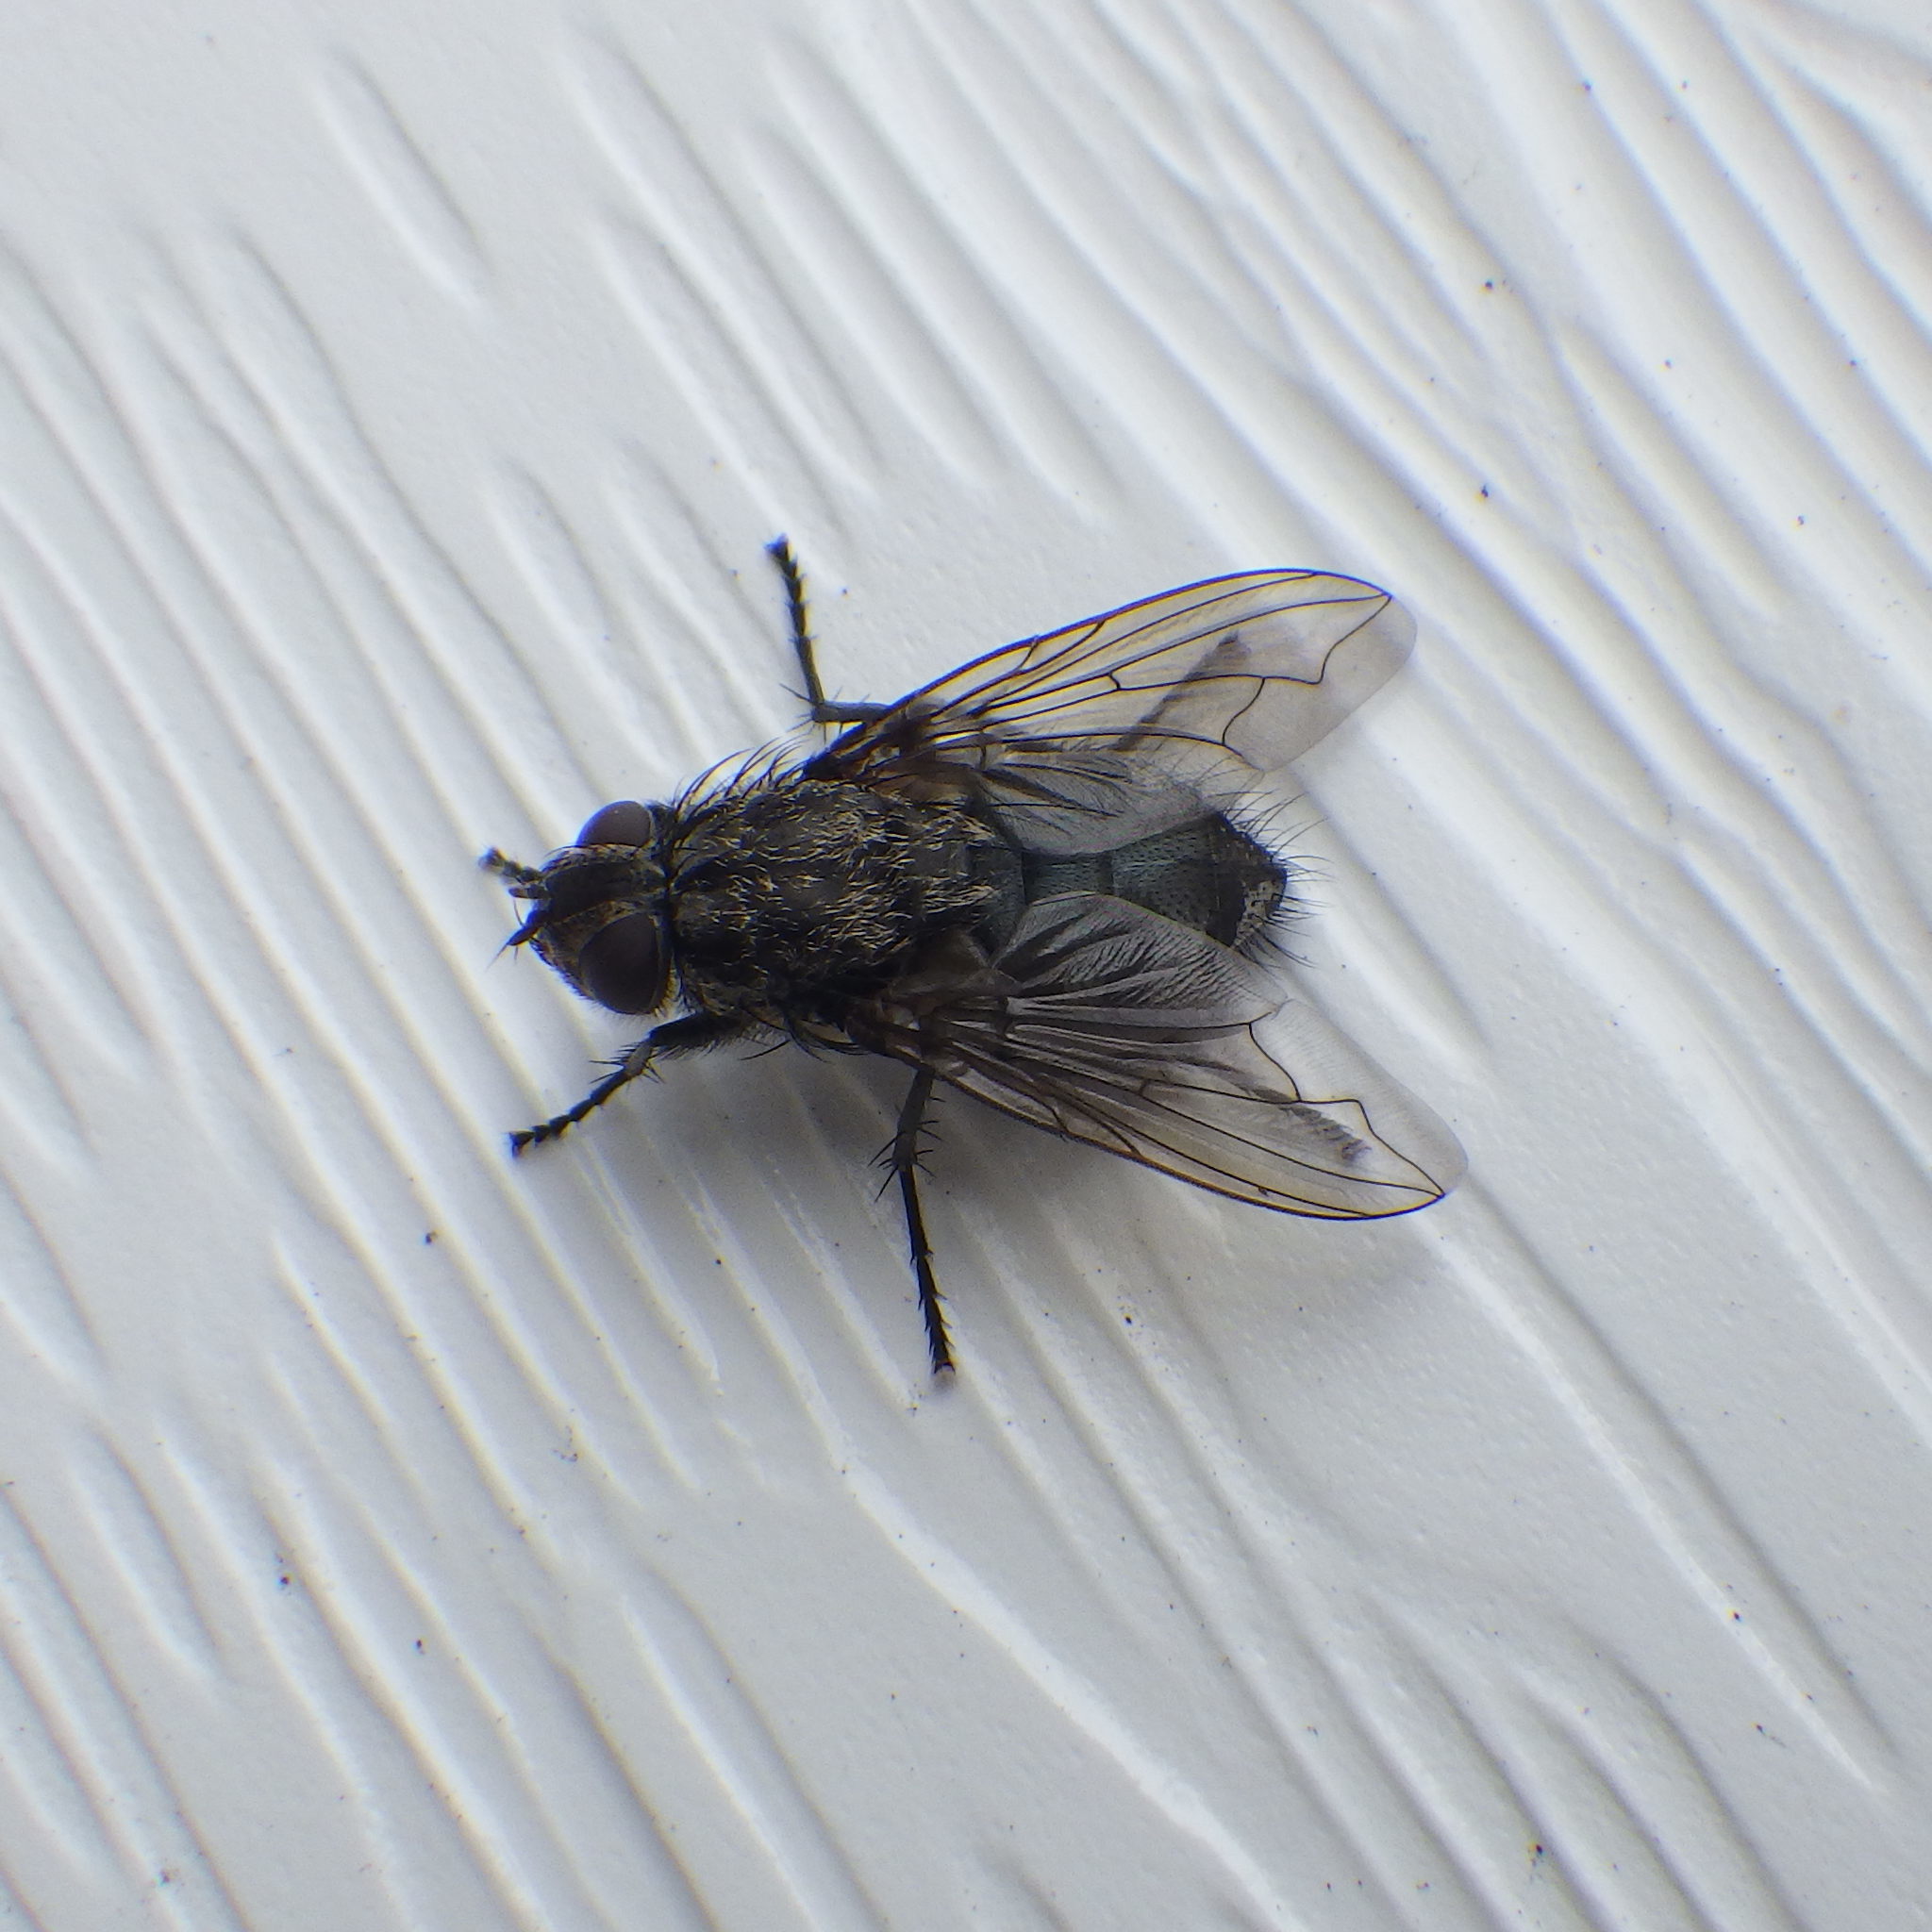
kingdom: Animalia
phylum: Arthropoda
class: Insecta
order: Diptera
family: Polleniidae
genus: Pollenia
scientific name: Pollenia vagabunda
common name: Vagabund cluster fly
